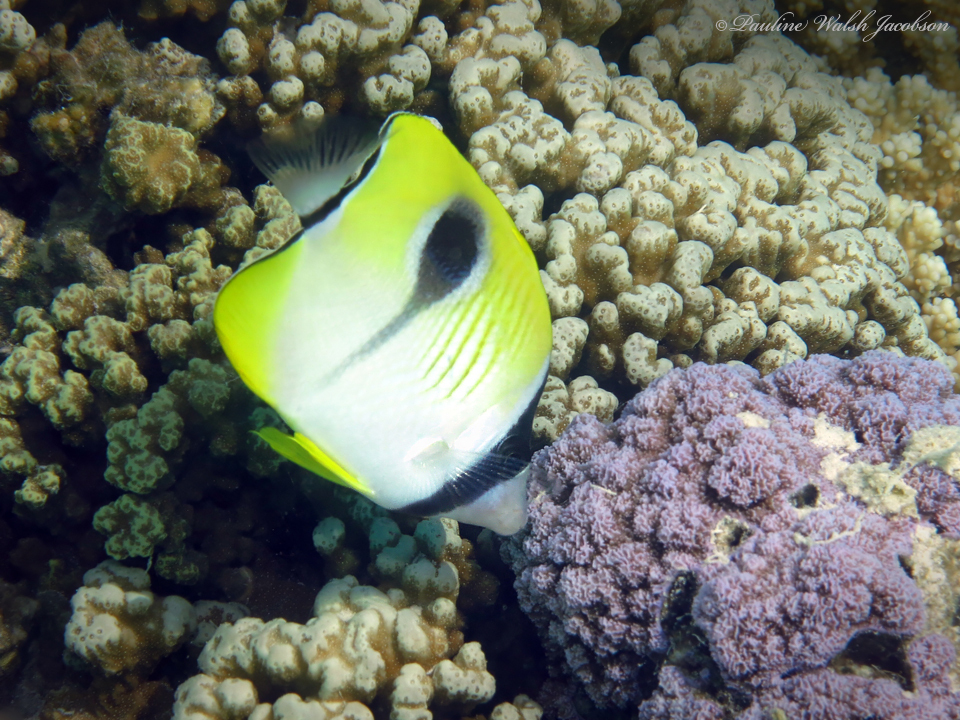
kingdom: Animalia
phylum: Chordata
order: Perciformes
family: Chaetodontidae
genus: Chaetodon
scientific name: Chaetodon unimaculatus
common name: Teardrop butterflyfish
